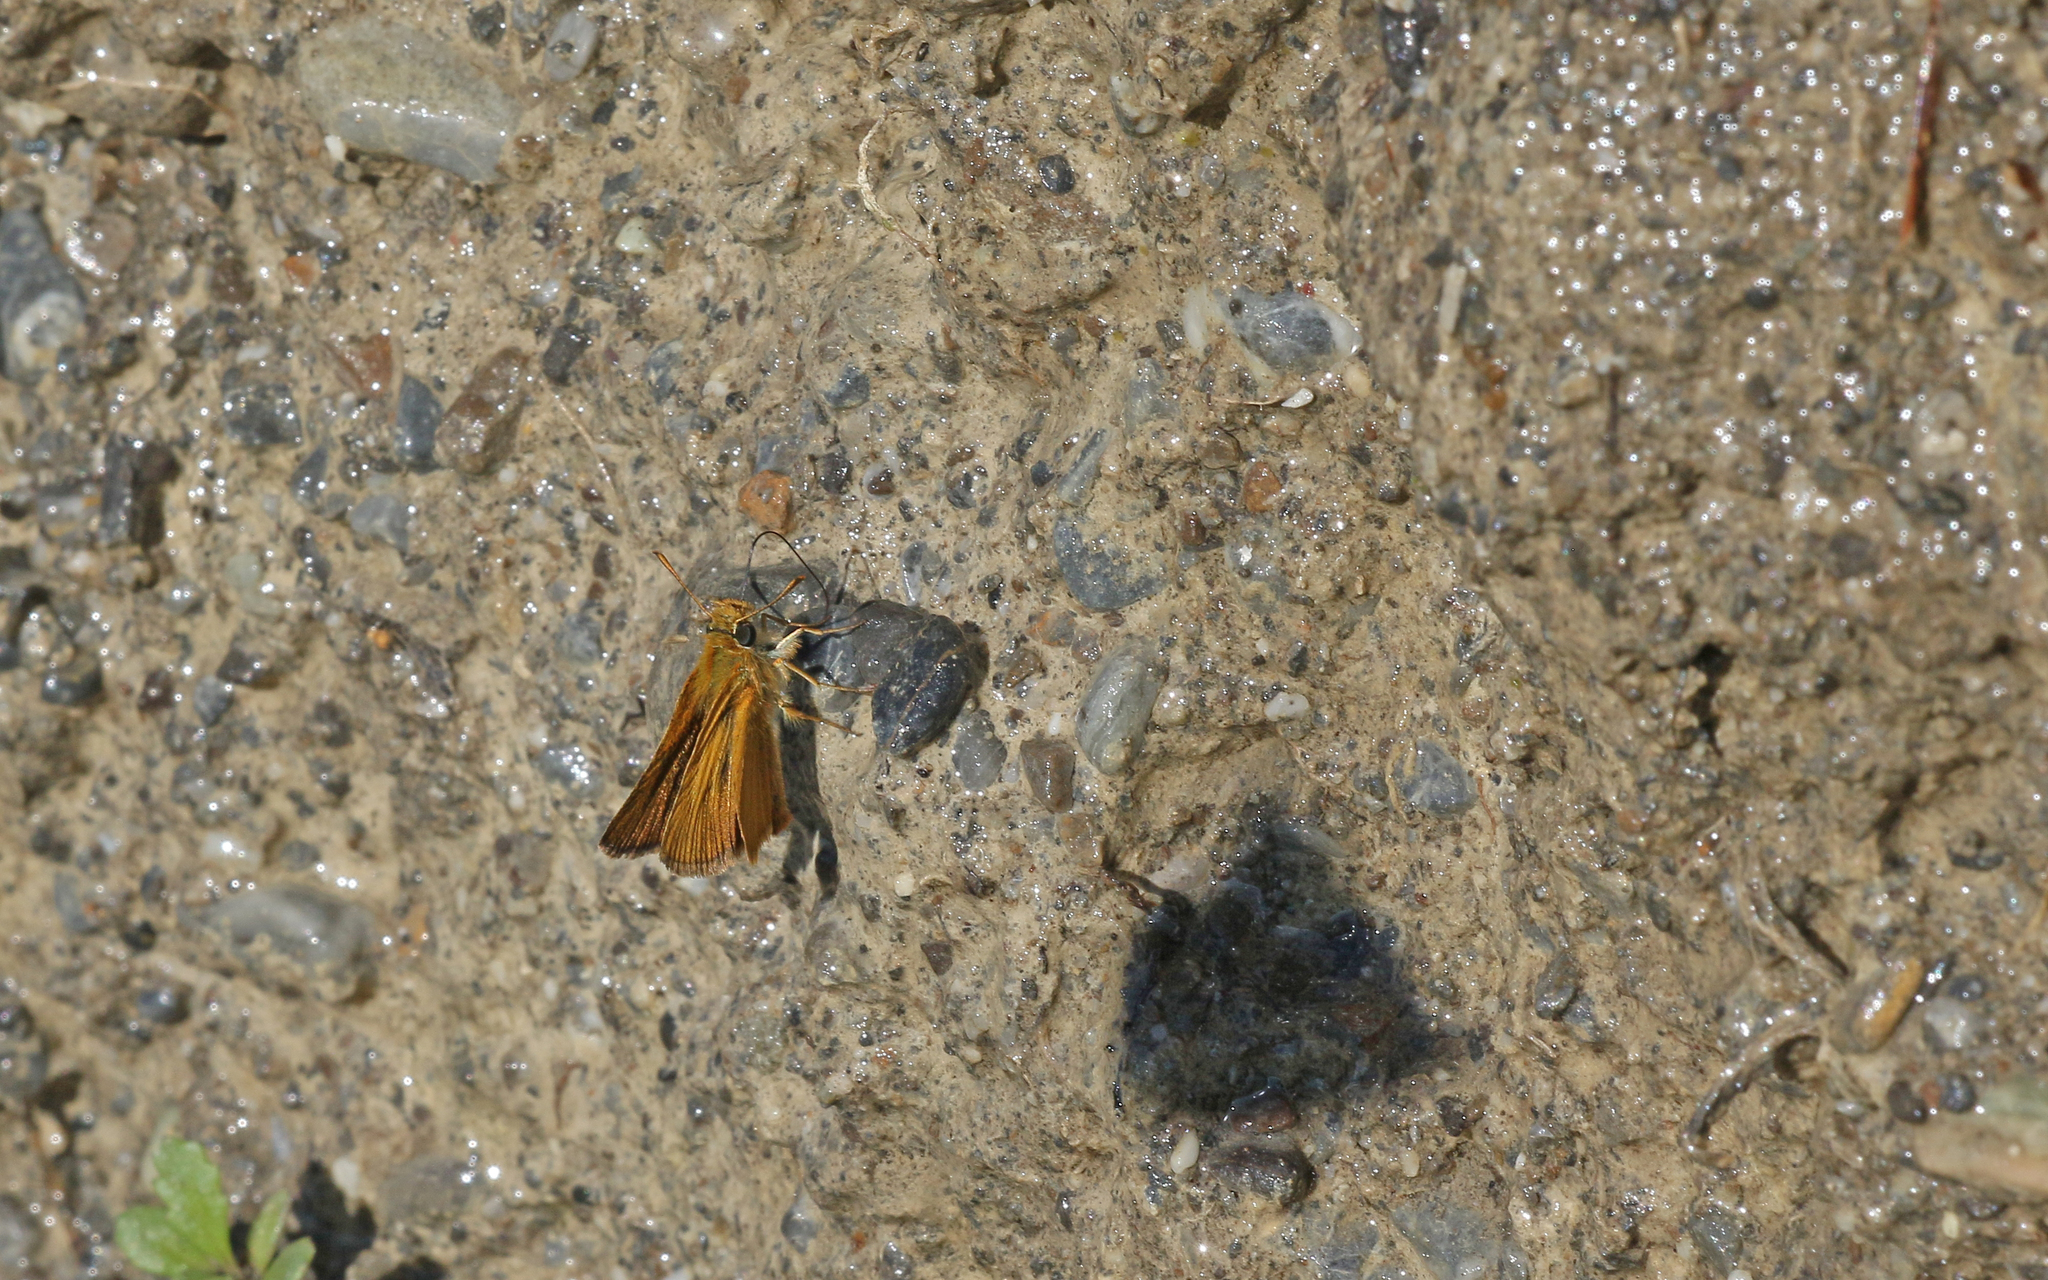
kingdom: Animalia
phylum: Arthropoda
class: Insecta
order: Lepidoptera
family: Hesperiidae
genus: Thymelicus
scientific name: Thymelicus acteon
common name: Lulworth skipper
